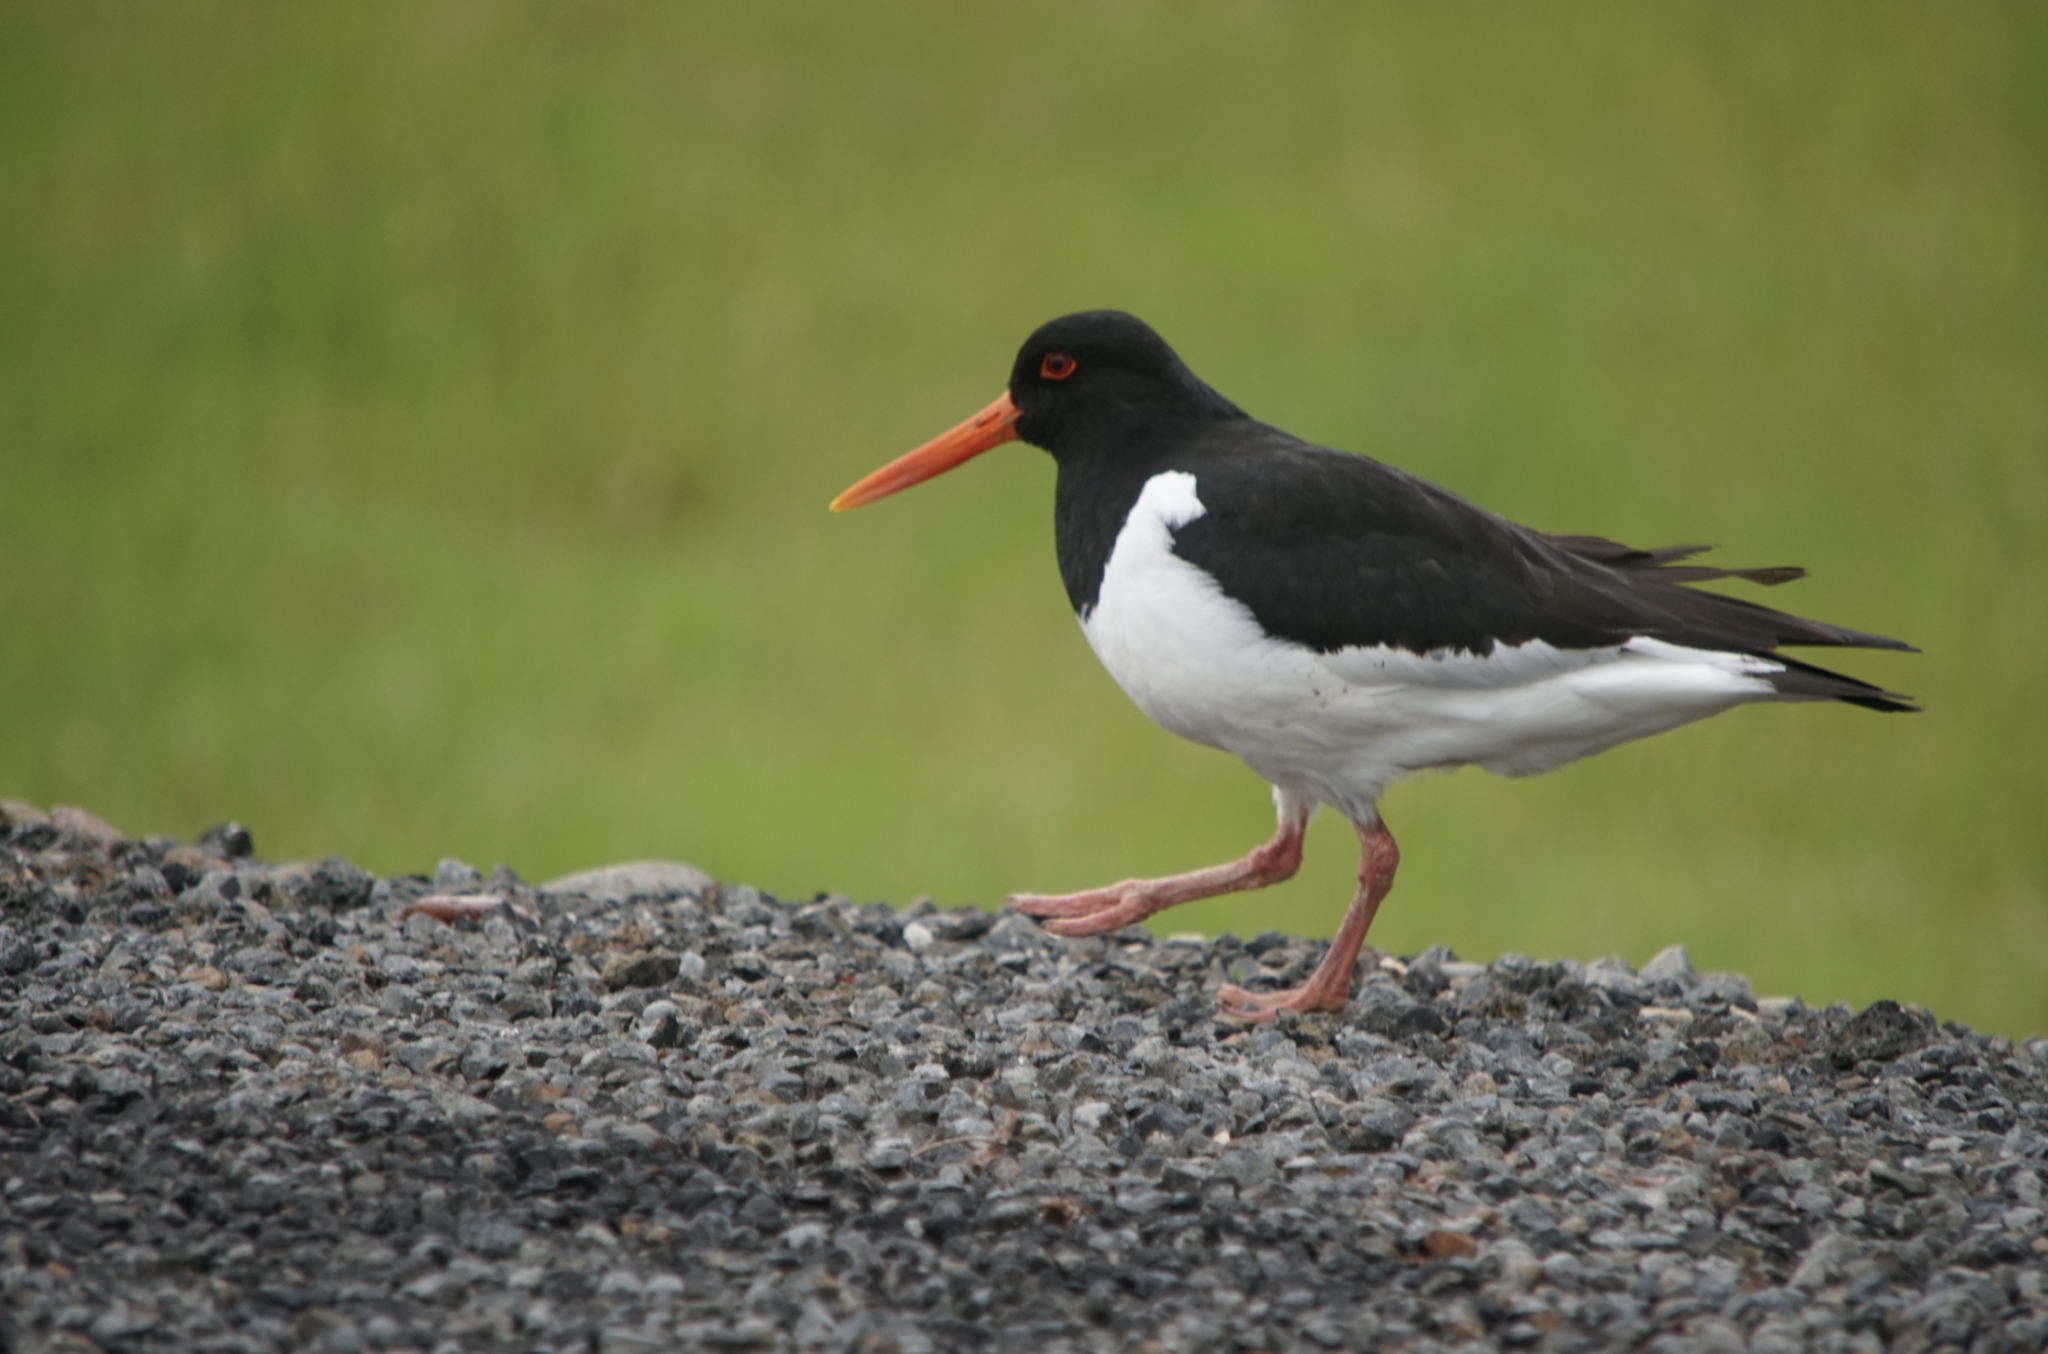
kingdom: Animalia
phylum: Chordata
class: Aves
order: Charadriiformes
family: Haematopodidae
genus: Haematopus
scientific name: Haematopus ostralegus
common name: Eurasian oystercatcher
